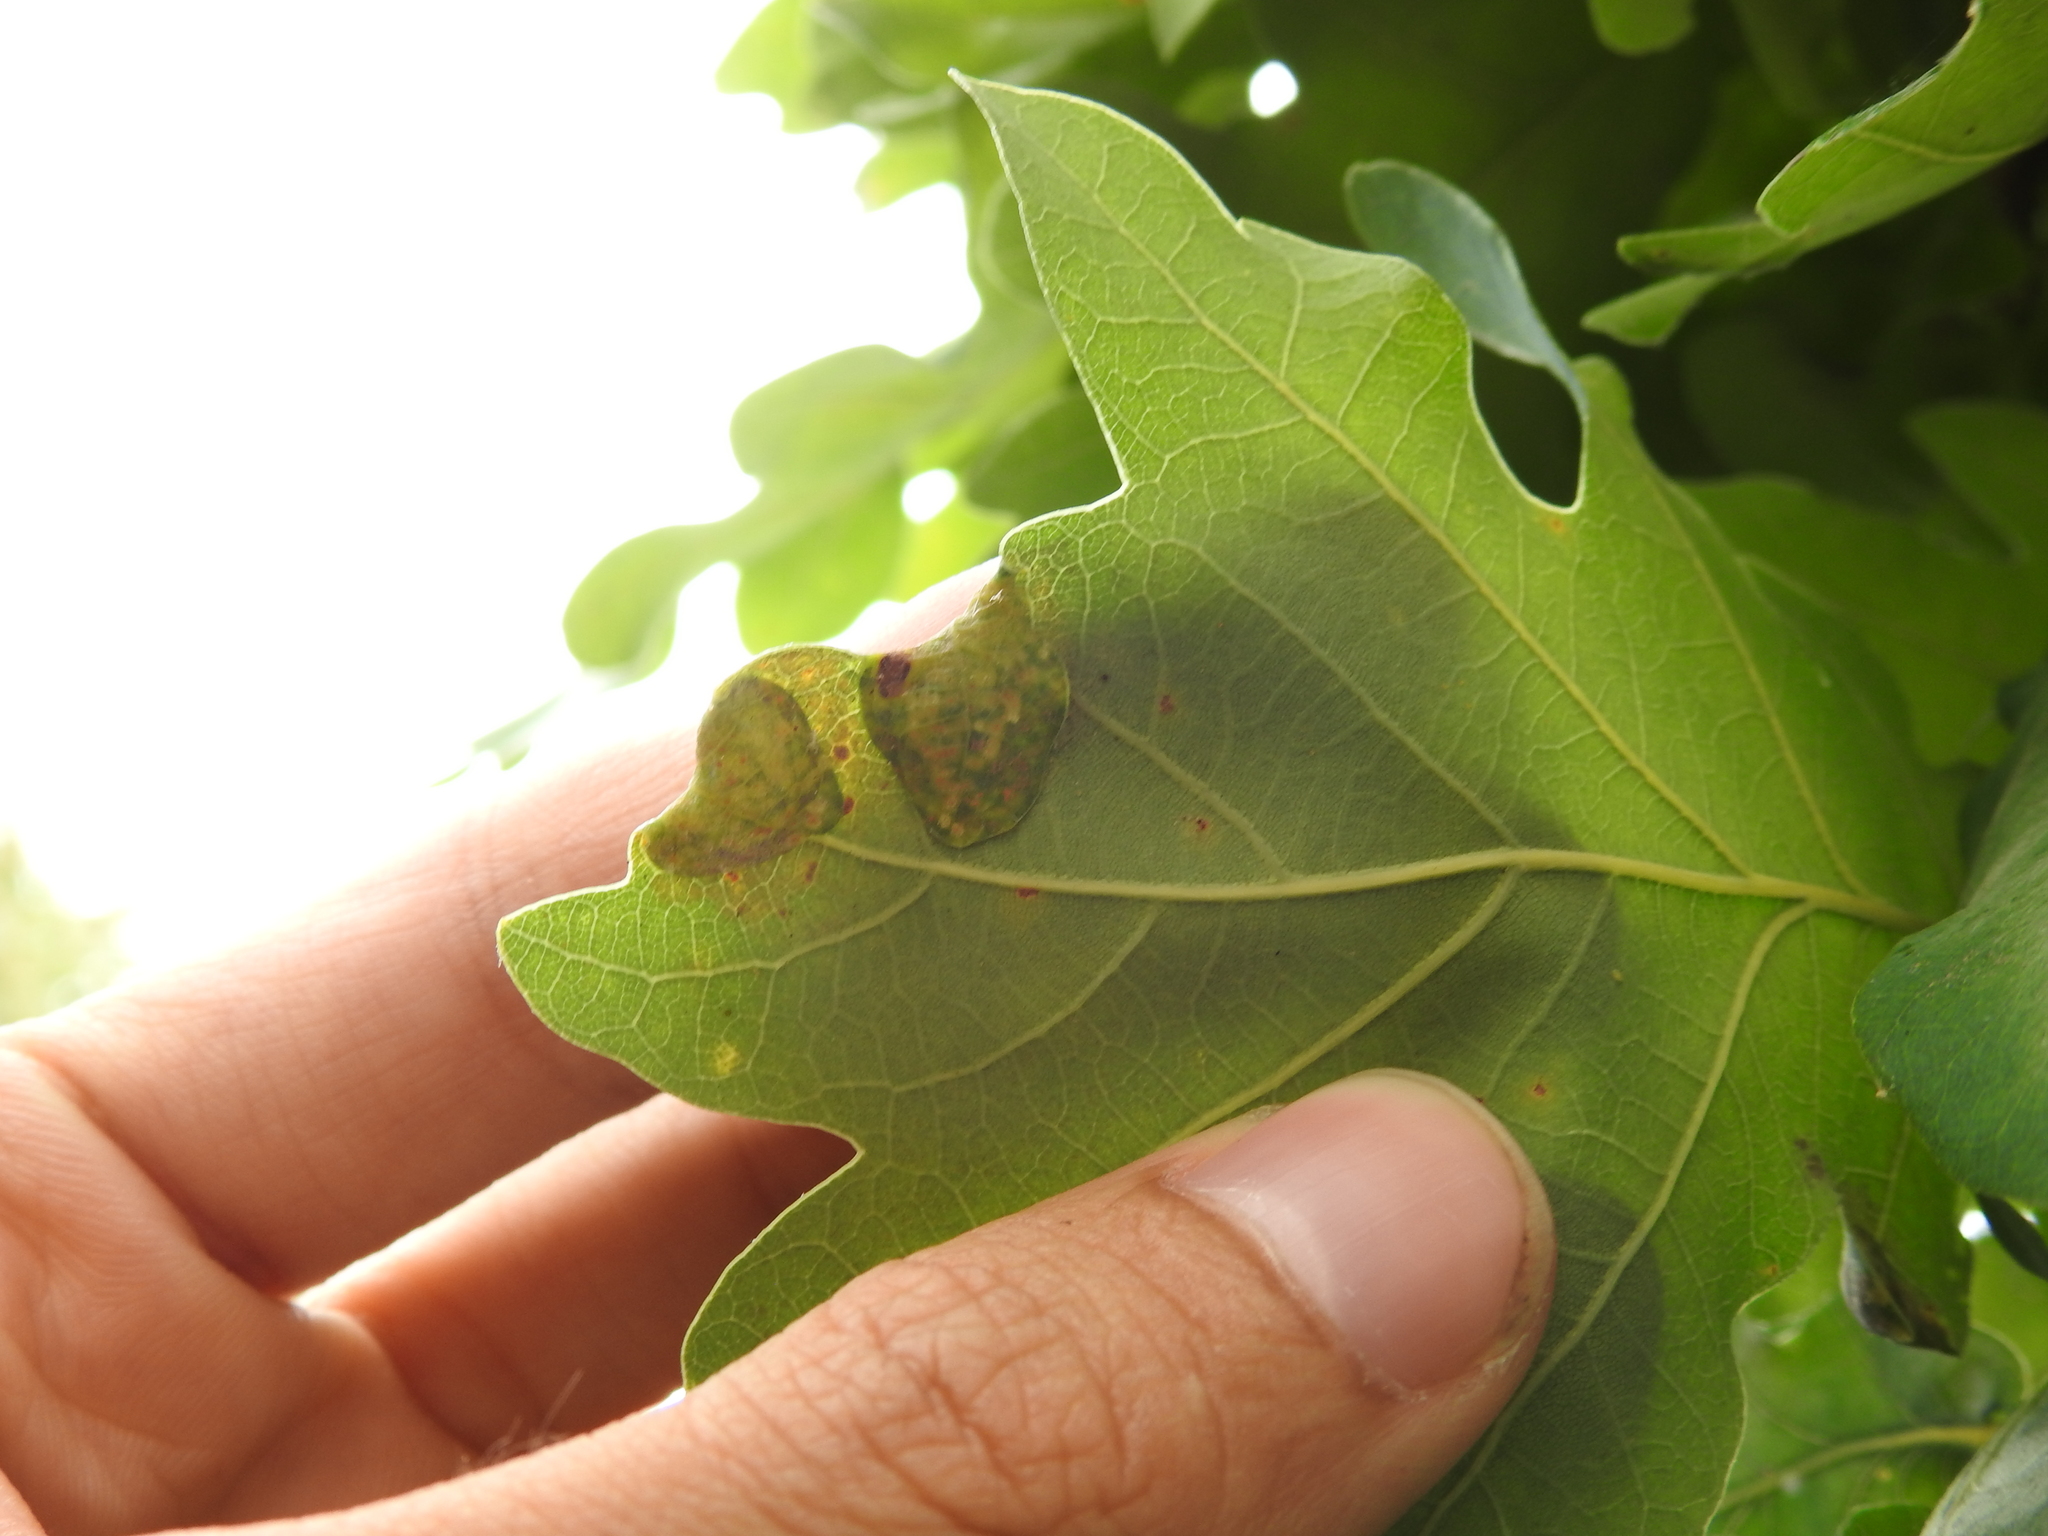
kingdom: Animalia
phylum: Arthropoda
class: Insecta
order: Diptera
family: Cecidomyiidae
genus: Macrodiplosis
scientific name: Macrodiplosis pustularis
